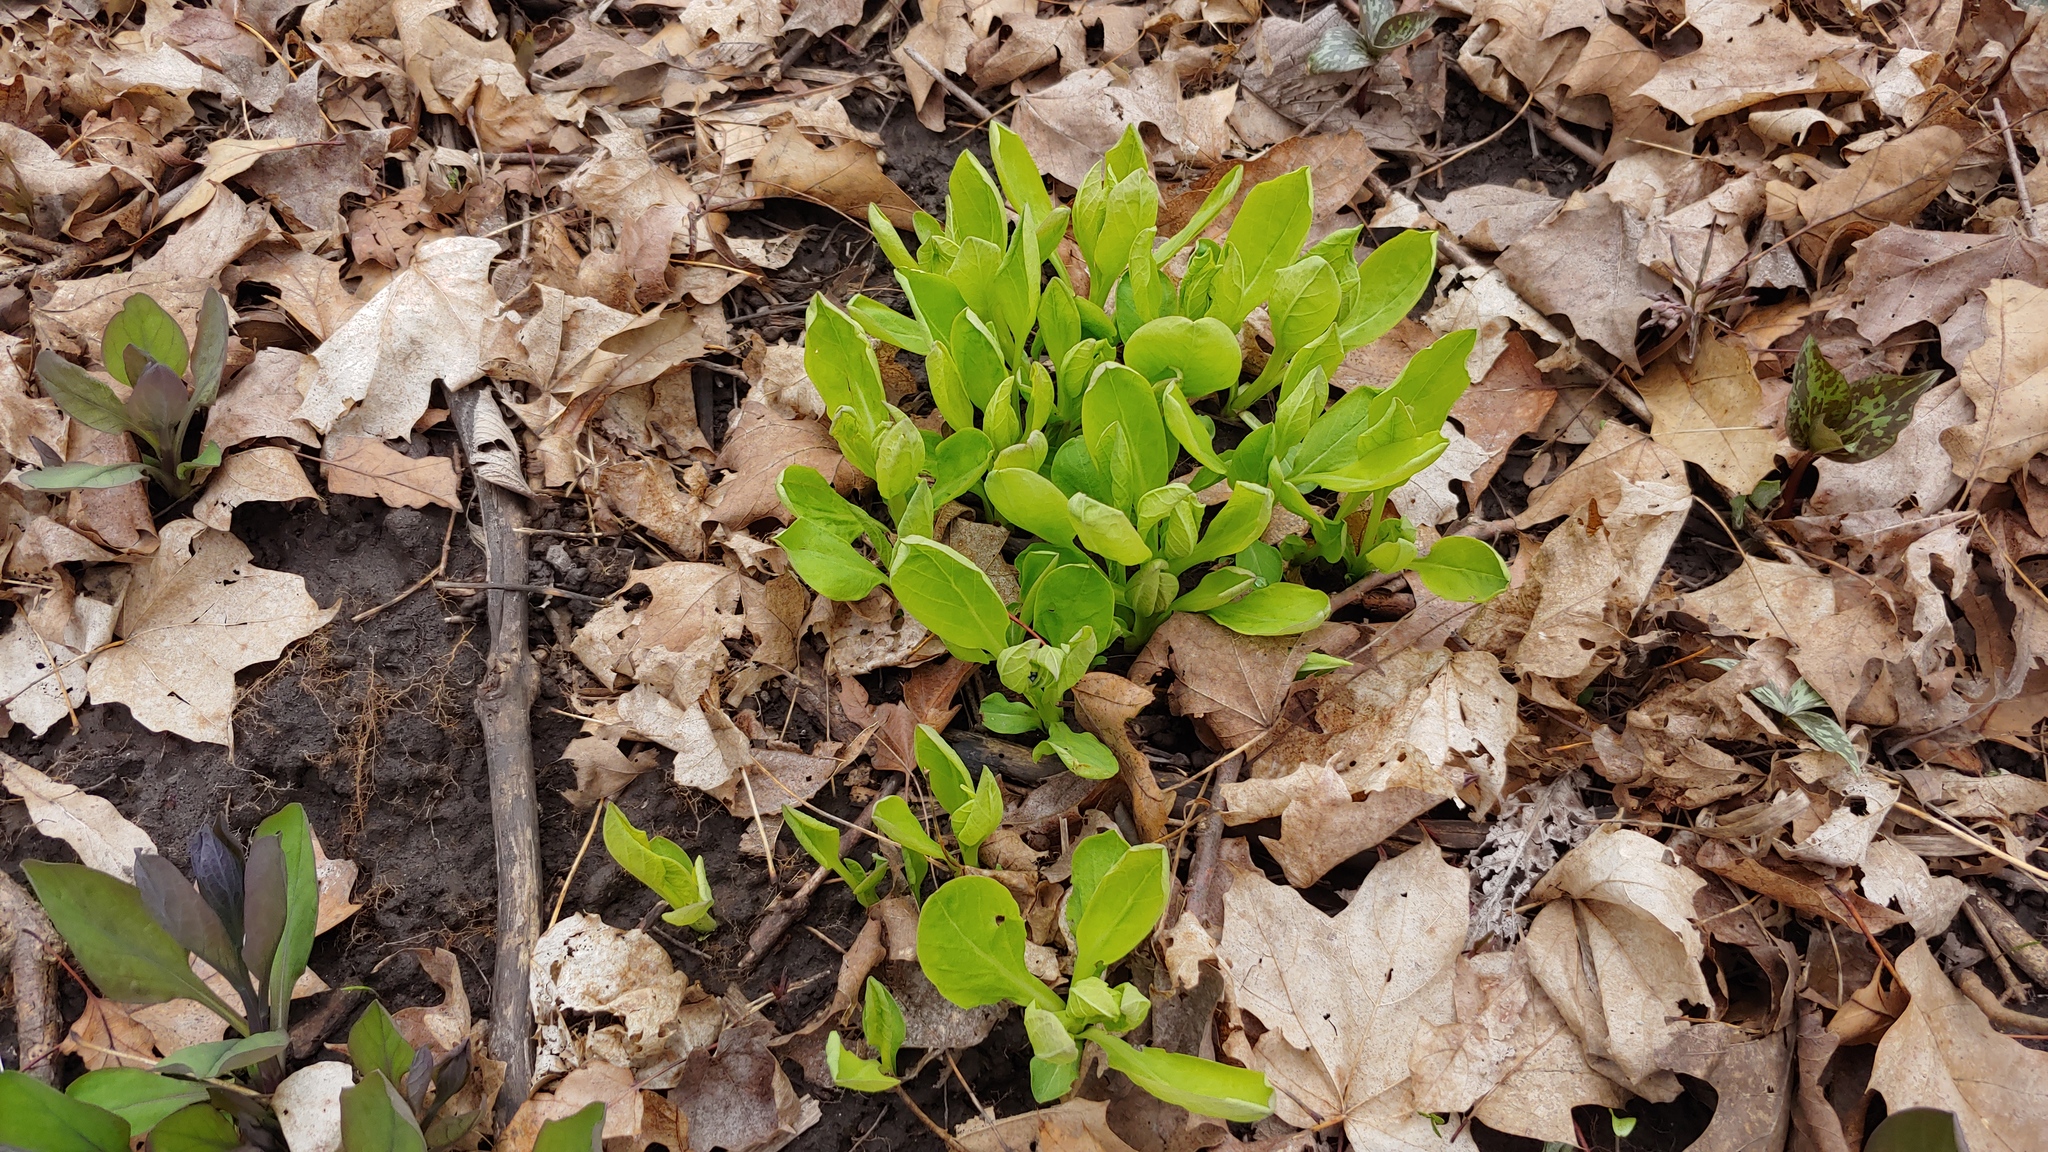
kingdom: Plantae
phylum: Tracheophyta
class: Magnoliopsida
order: Boraginales
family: Boraginaceae
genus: Mertensia
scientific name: Mertensia virginica
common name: Virginia bluebells
